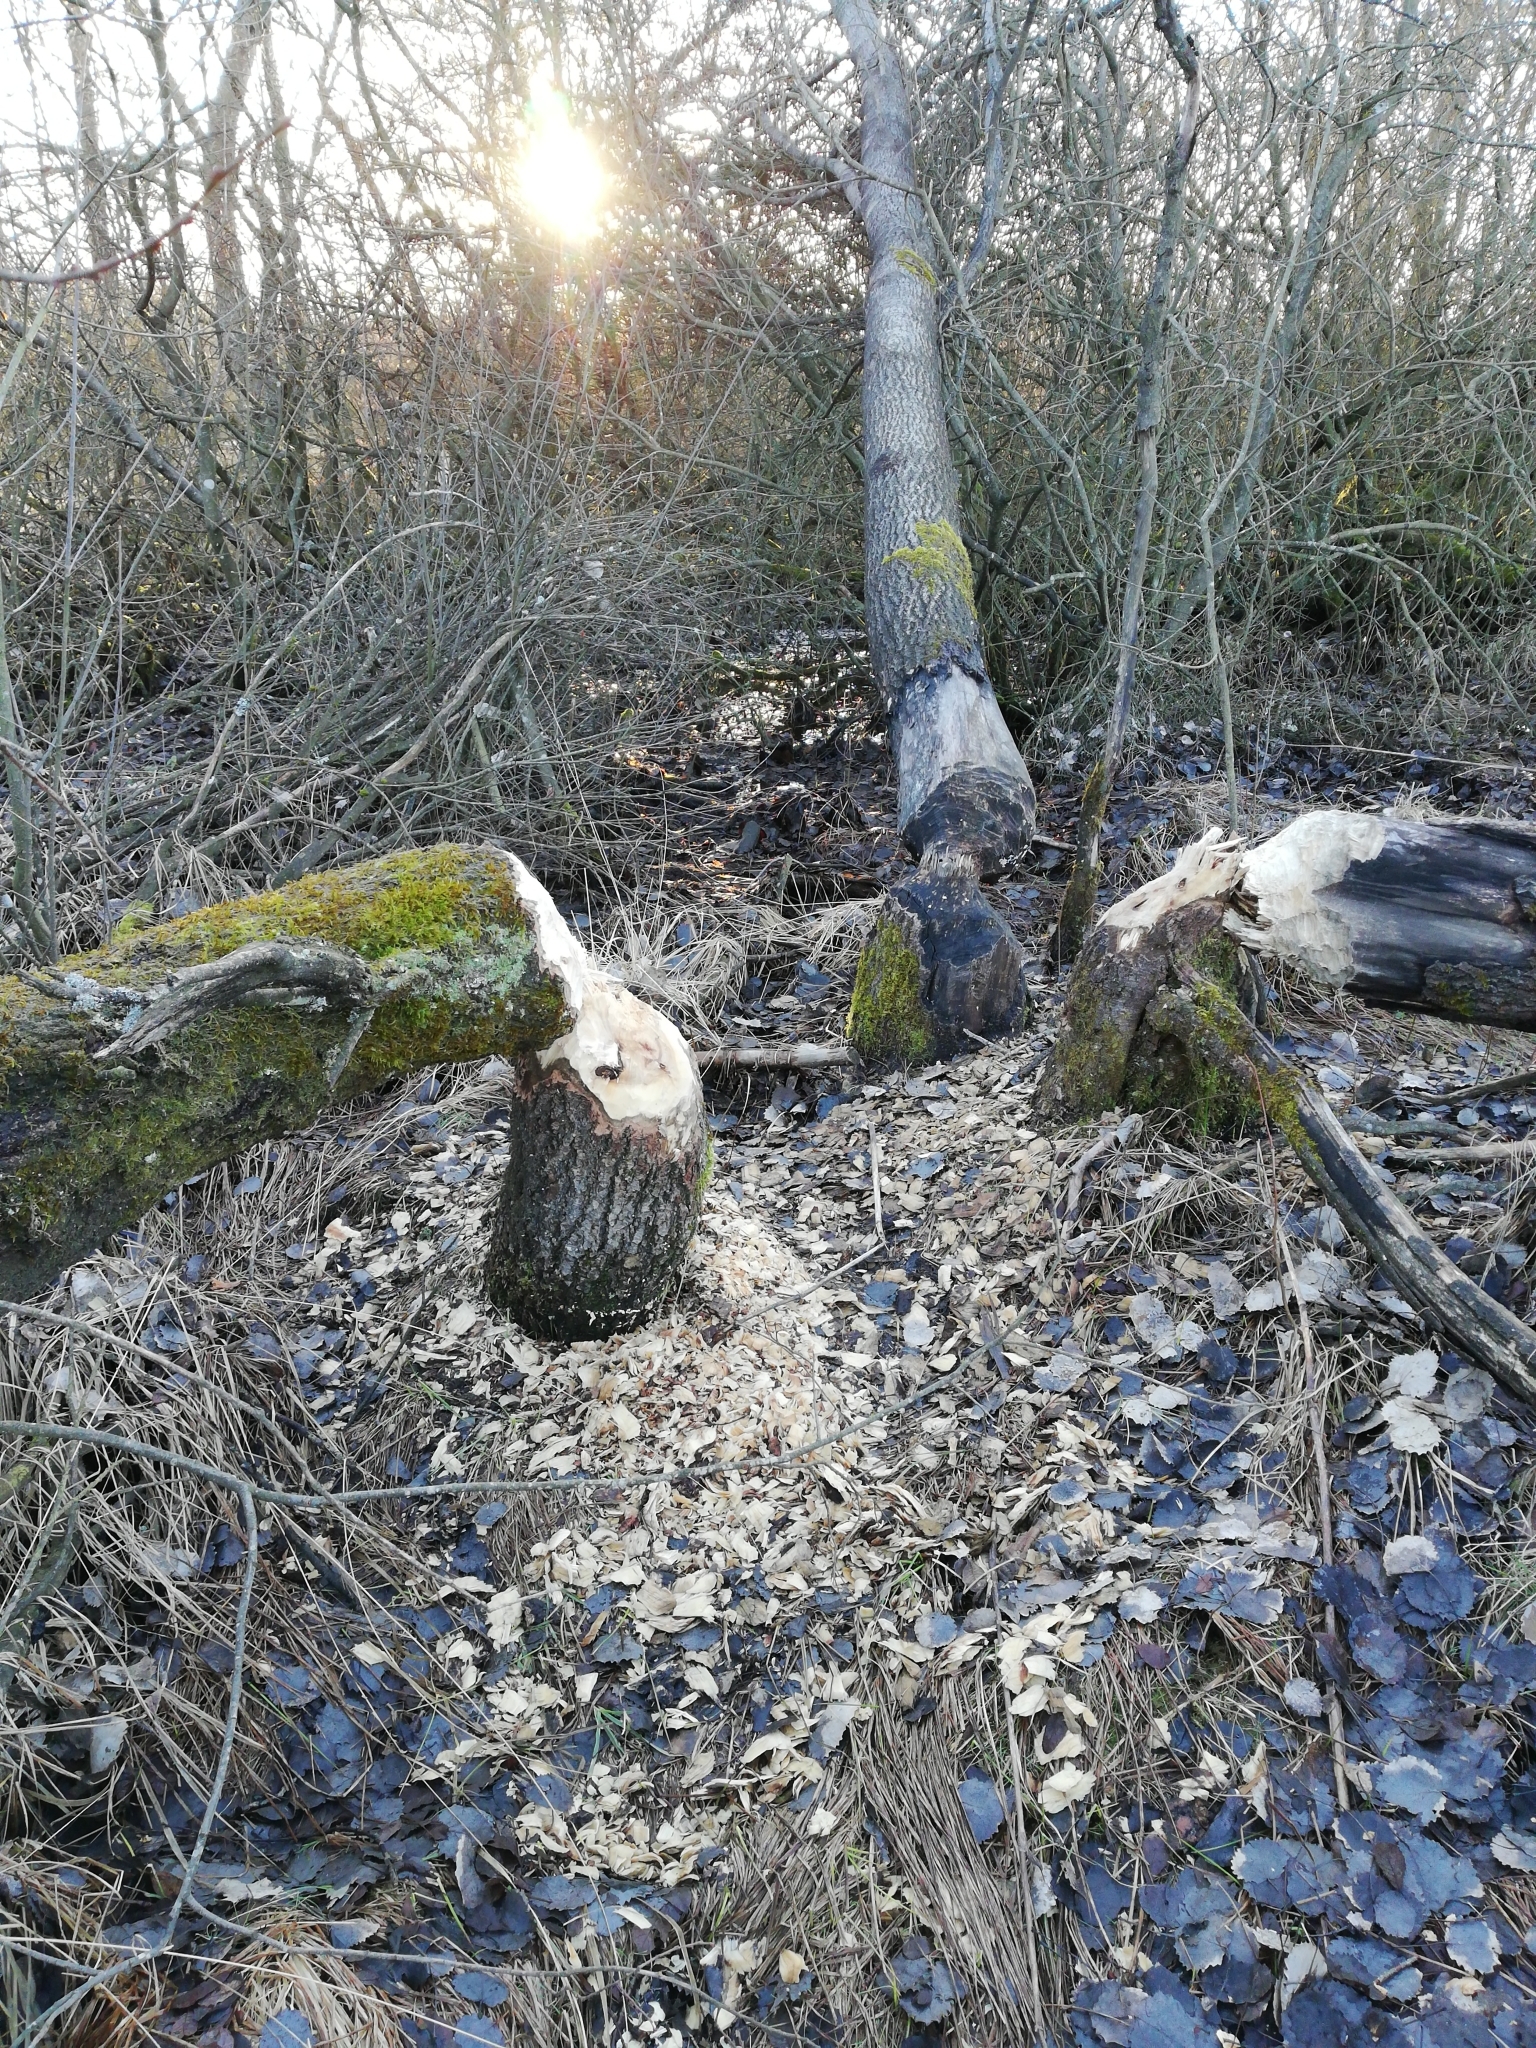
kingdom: Animalia
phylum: Chordata
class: Mammalia
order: Rodentia
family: Castoridae
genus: Castor
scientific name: Castor fiber
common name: Eurasian beaver
